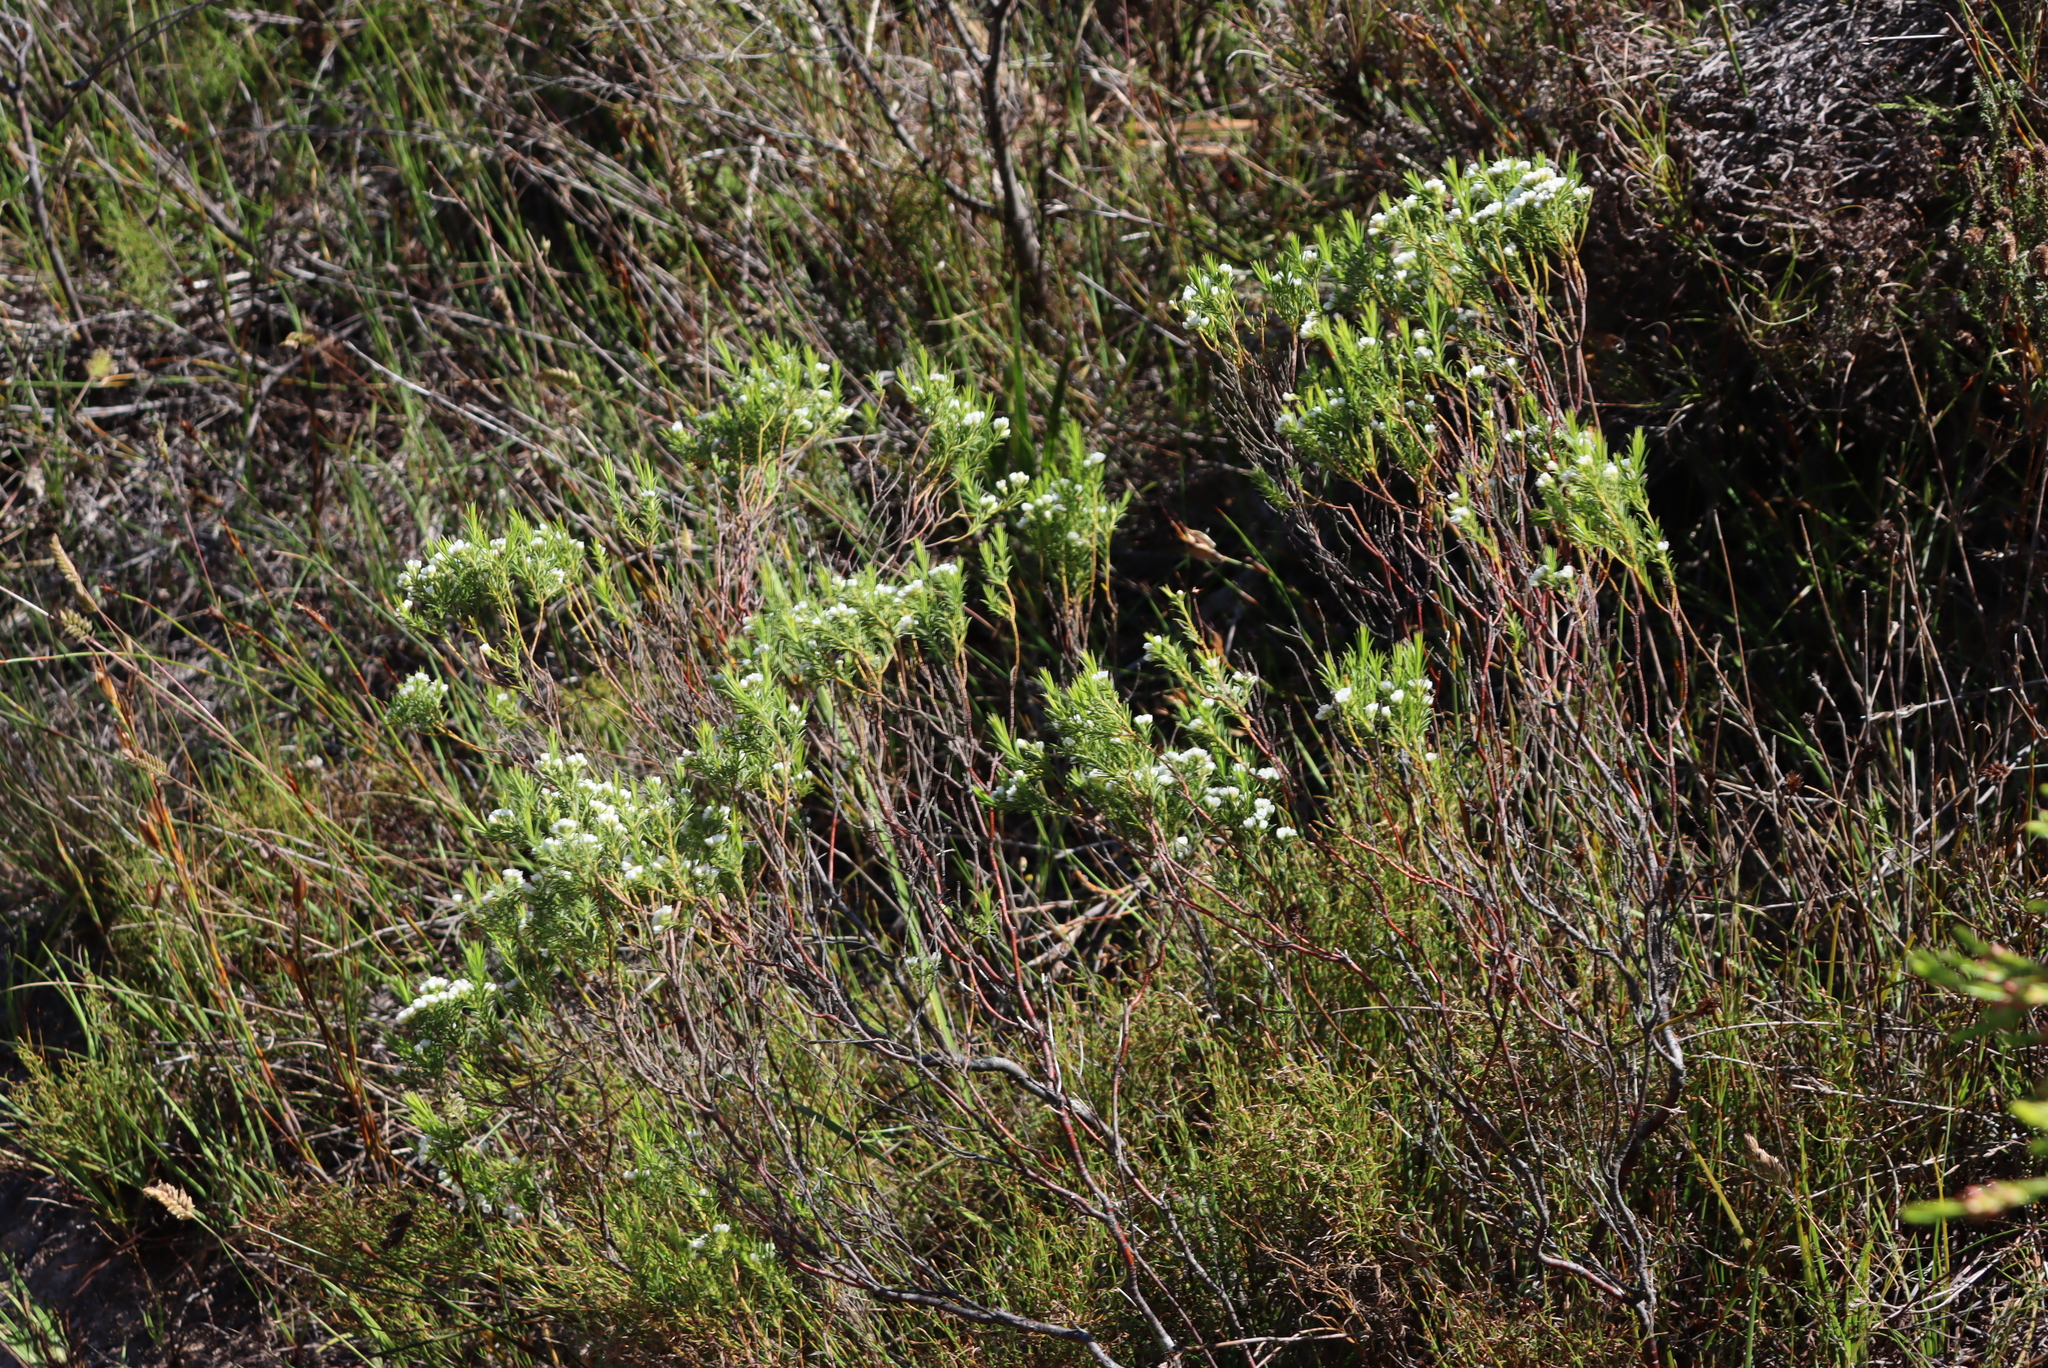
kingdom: Plantae
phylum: Tracheophyta
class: Magnoliopsida
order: Sapindales
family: Rutaceae
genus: Diosma
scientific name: Diosma hirsuta
